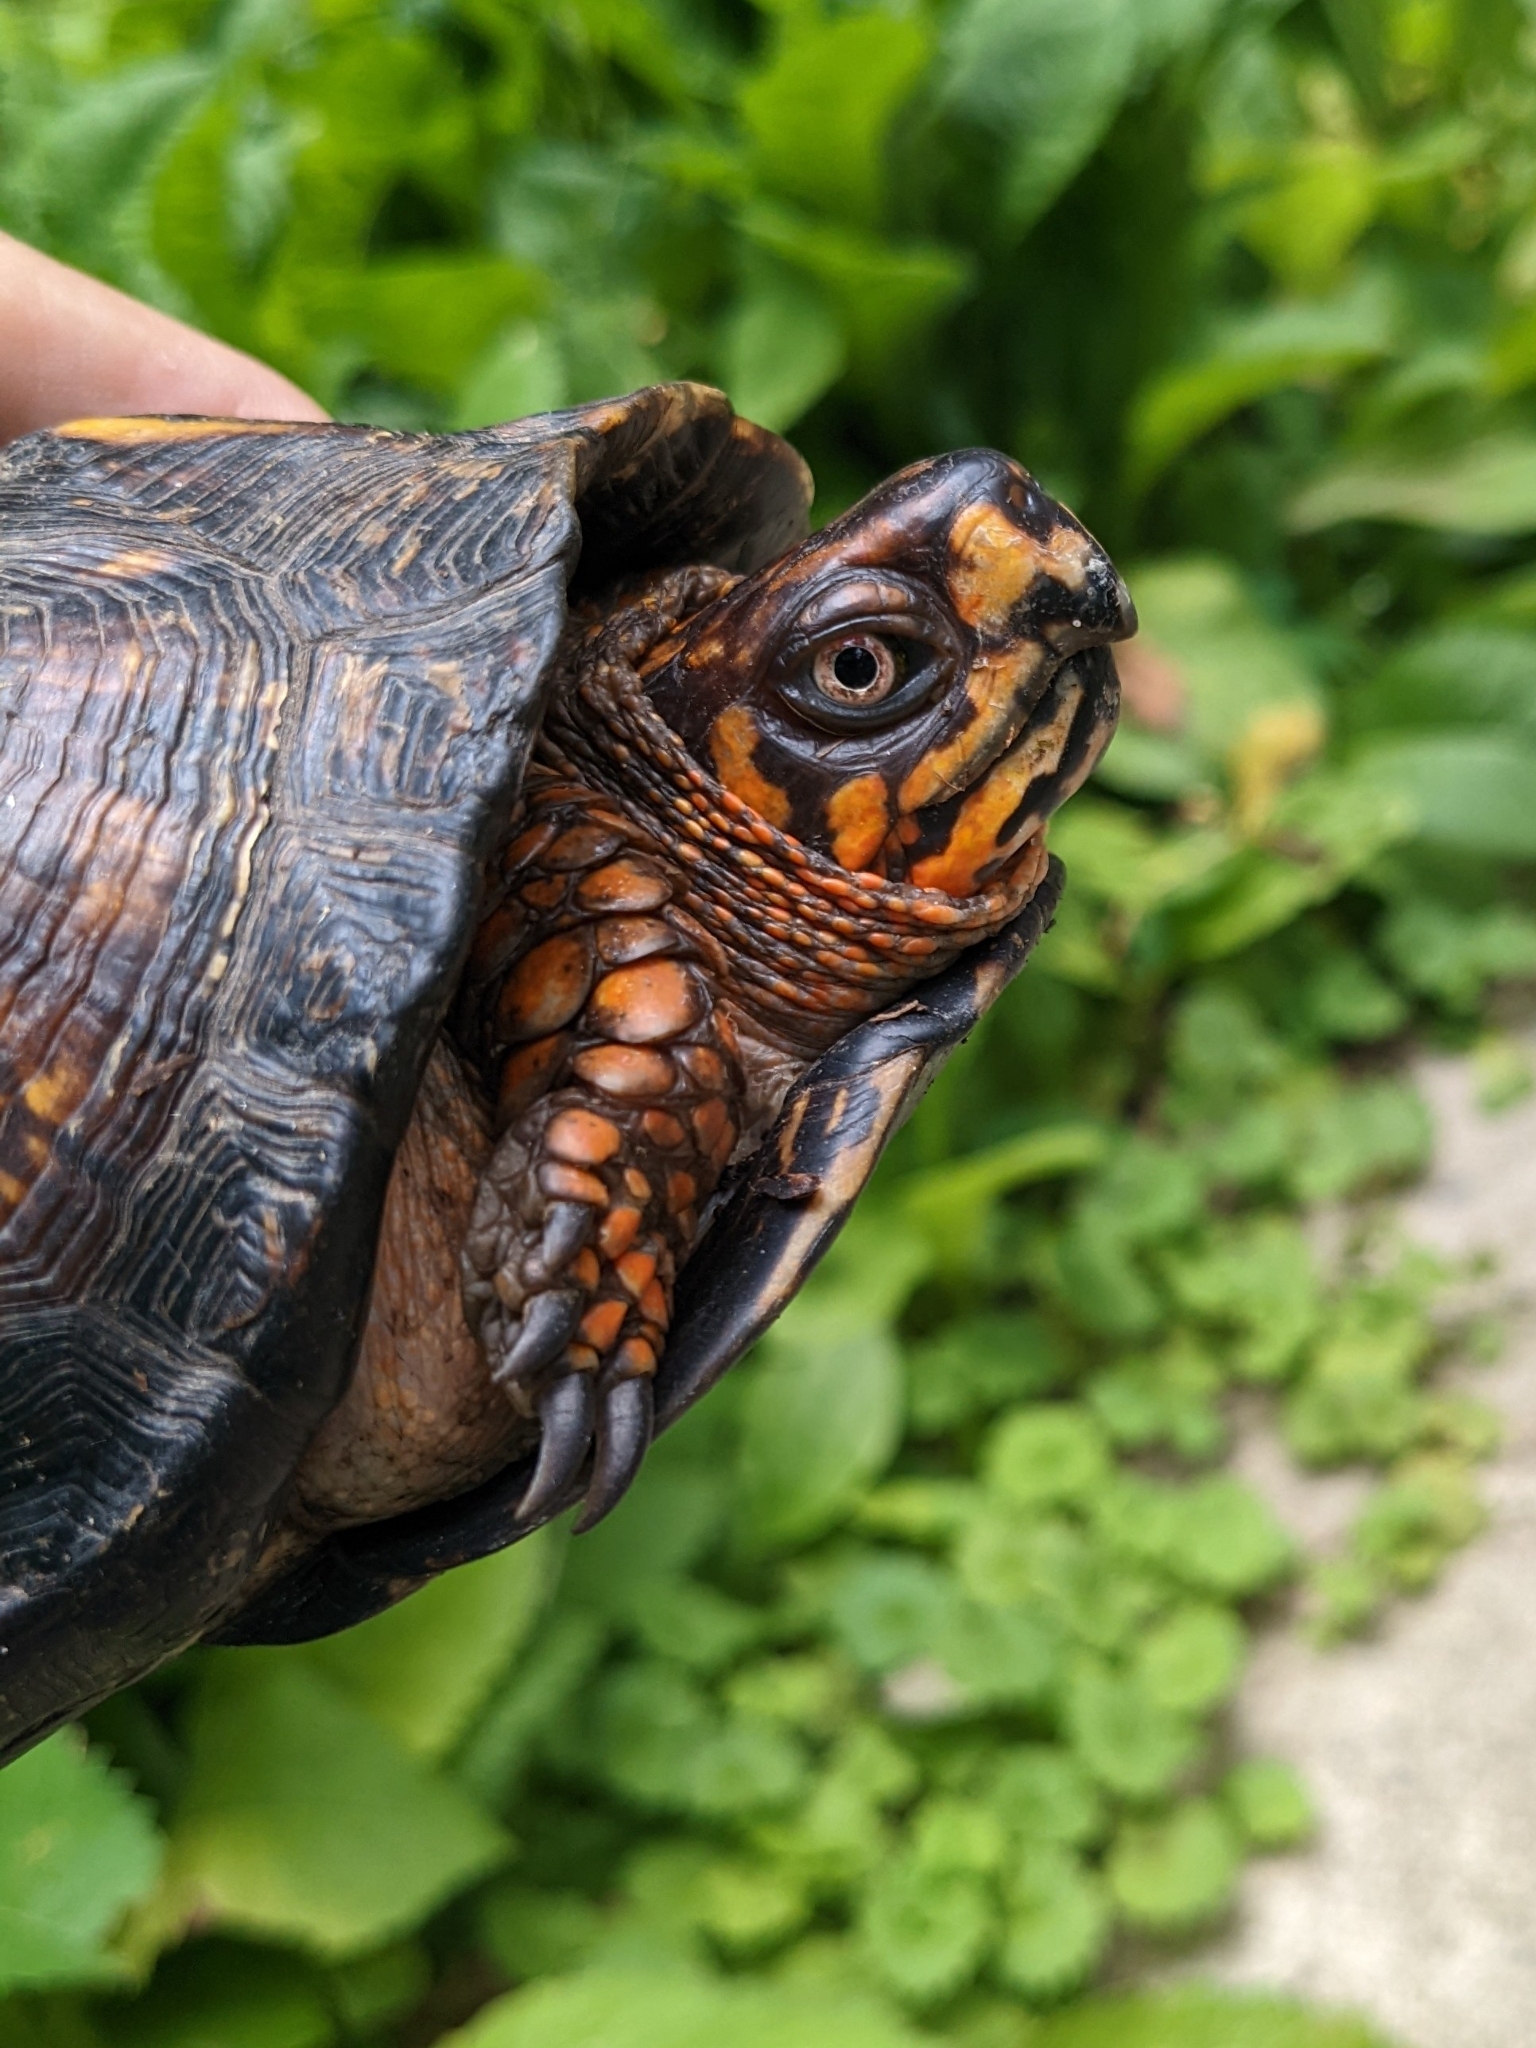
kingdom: Animalia
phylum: Chordata
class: Testudines
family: Emydidae
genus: Terrapene
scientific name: Terrapene carolina
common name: Common box turtle
